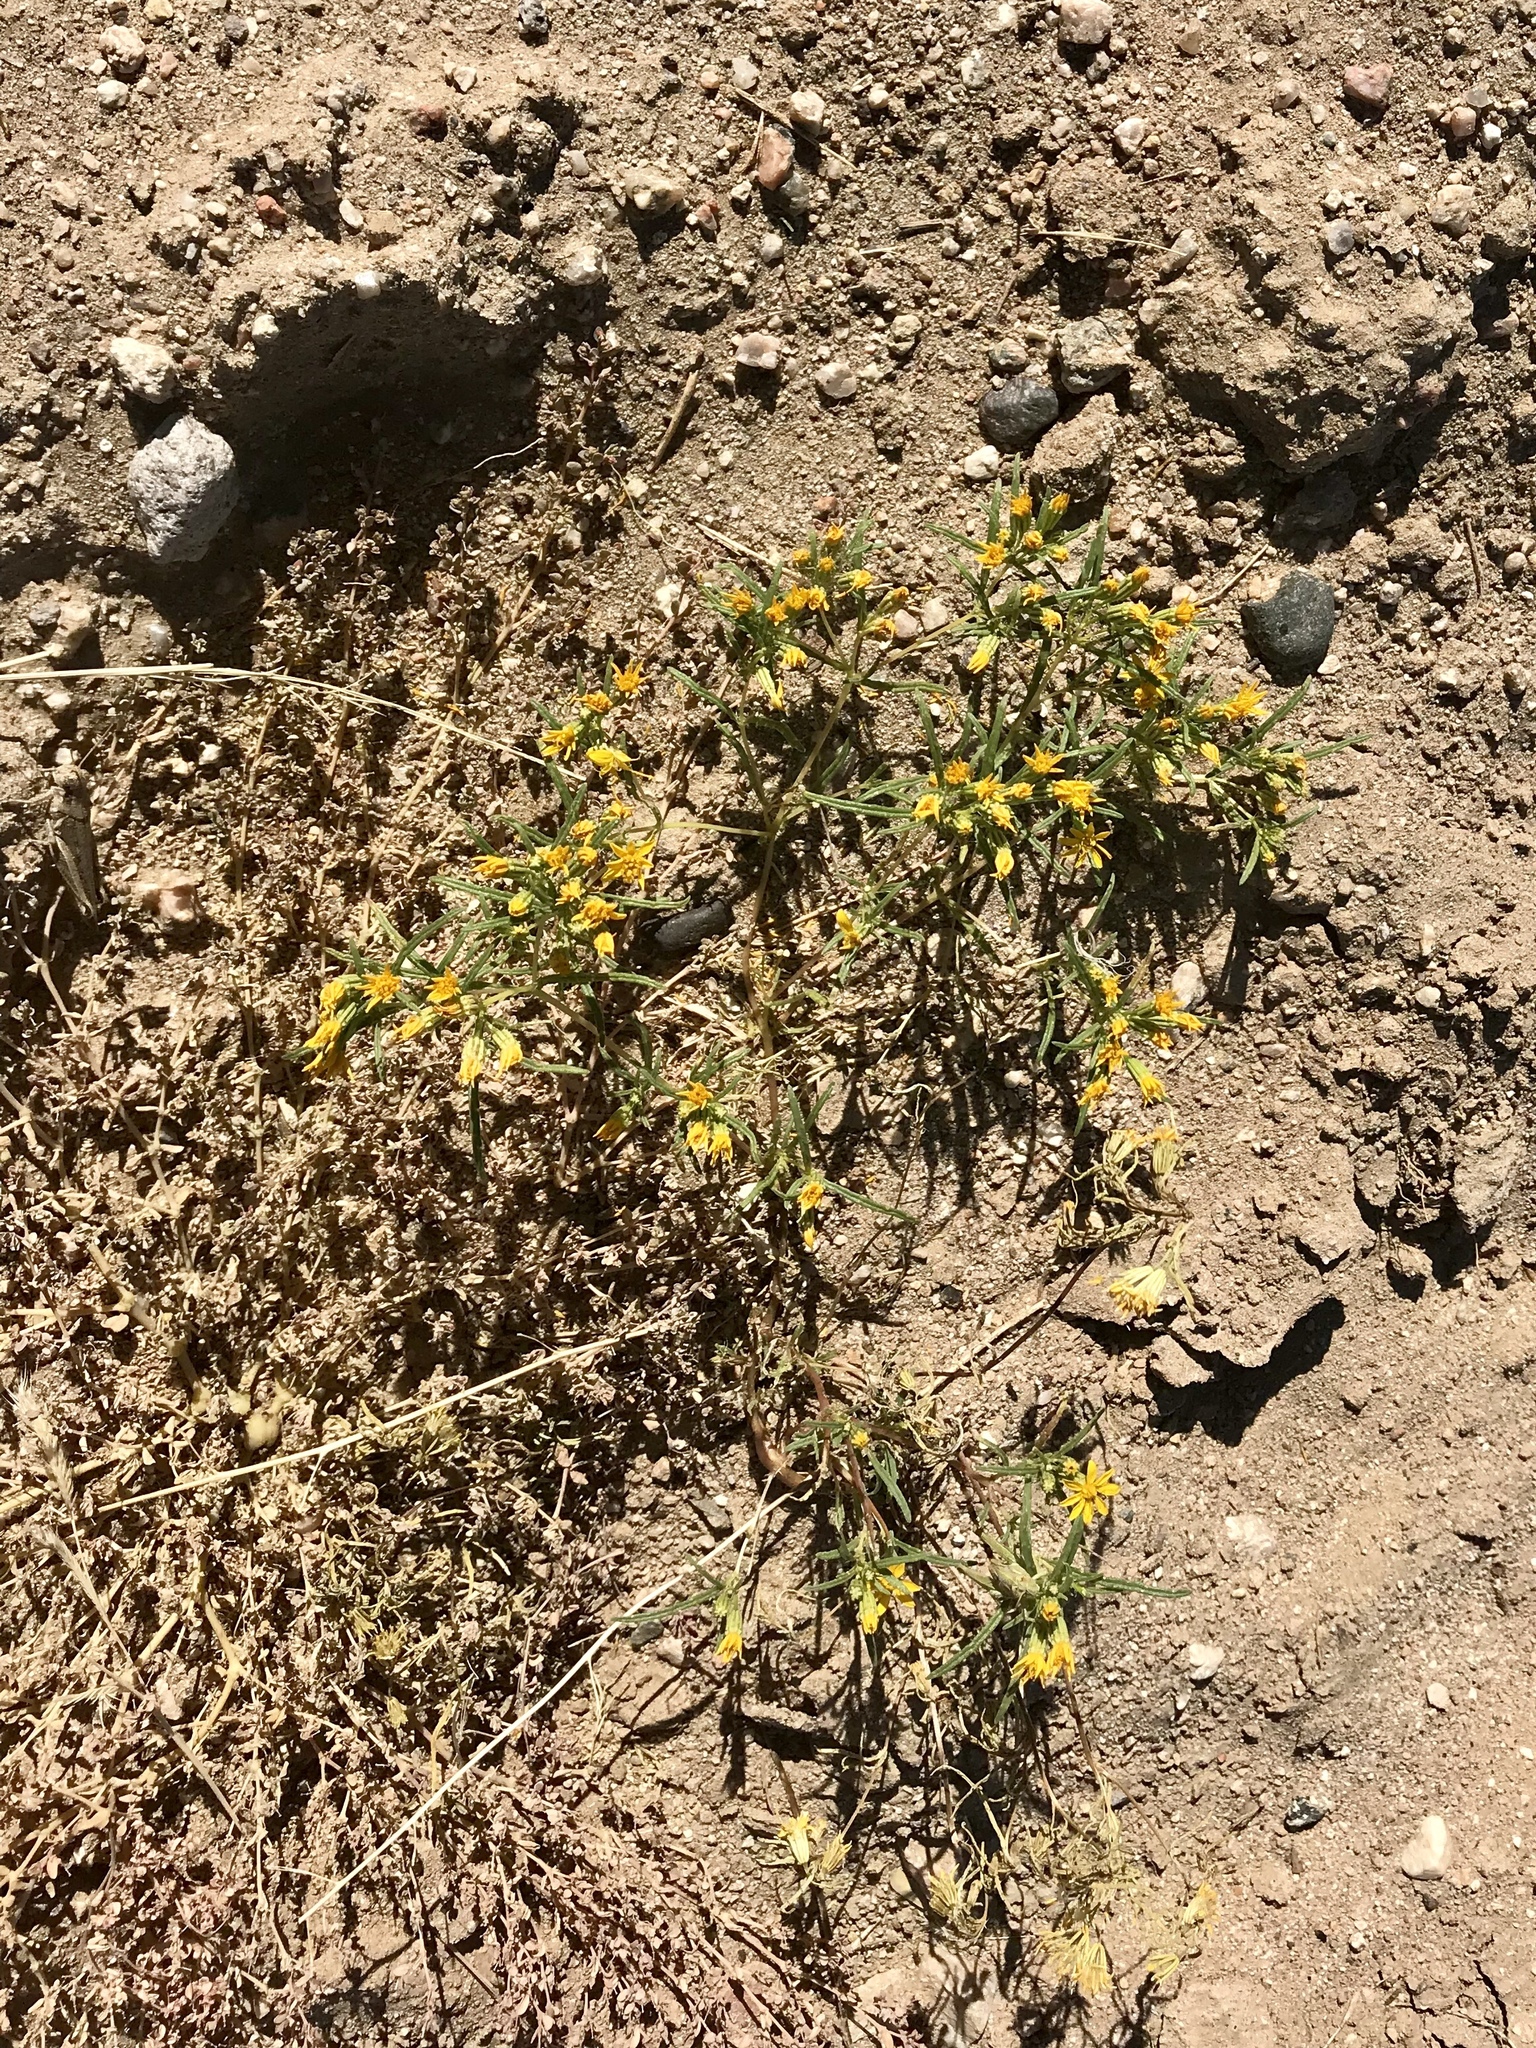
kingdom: Plantae
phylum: Tracheophyta
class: Magnoliopsida
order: Asterales
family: Asteraceae
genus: Pectis
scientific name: Pectis papposa
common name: Many-bristle chinchweed
